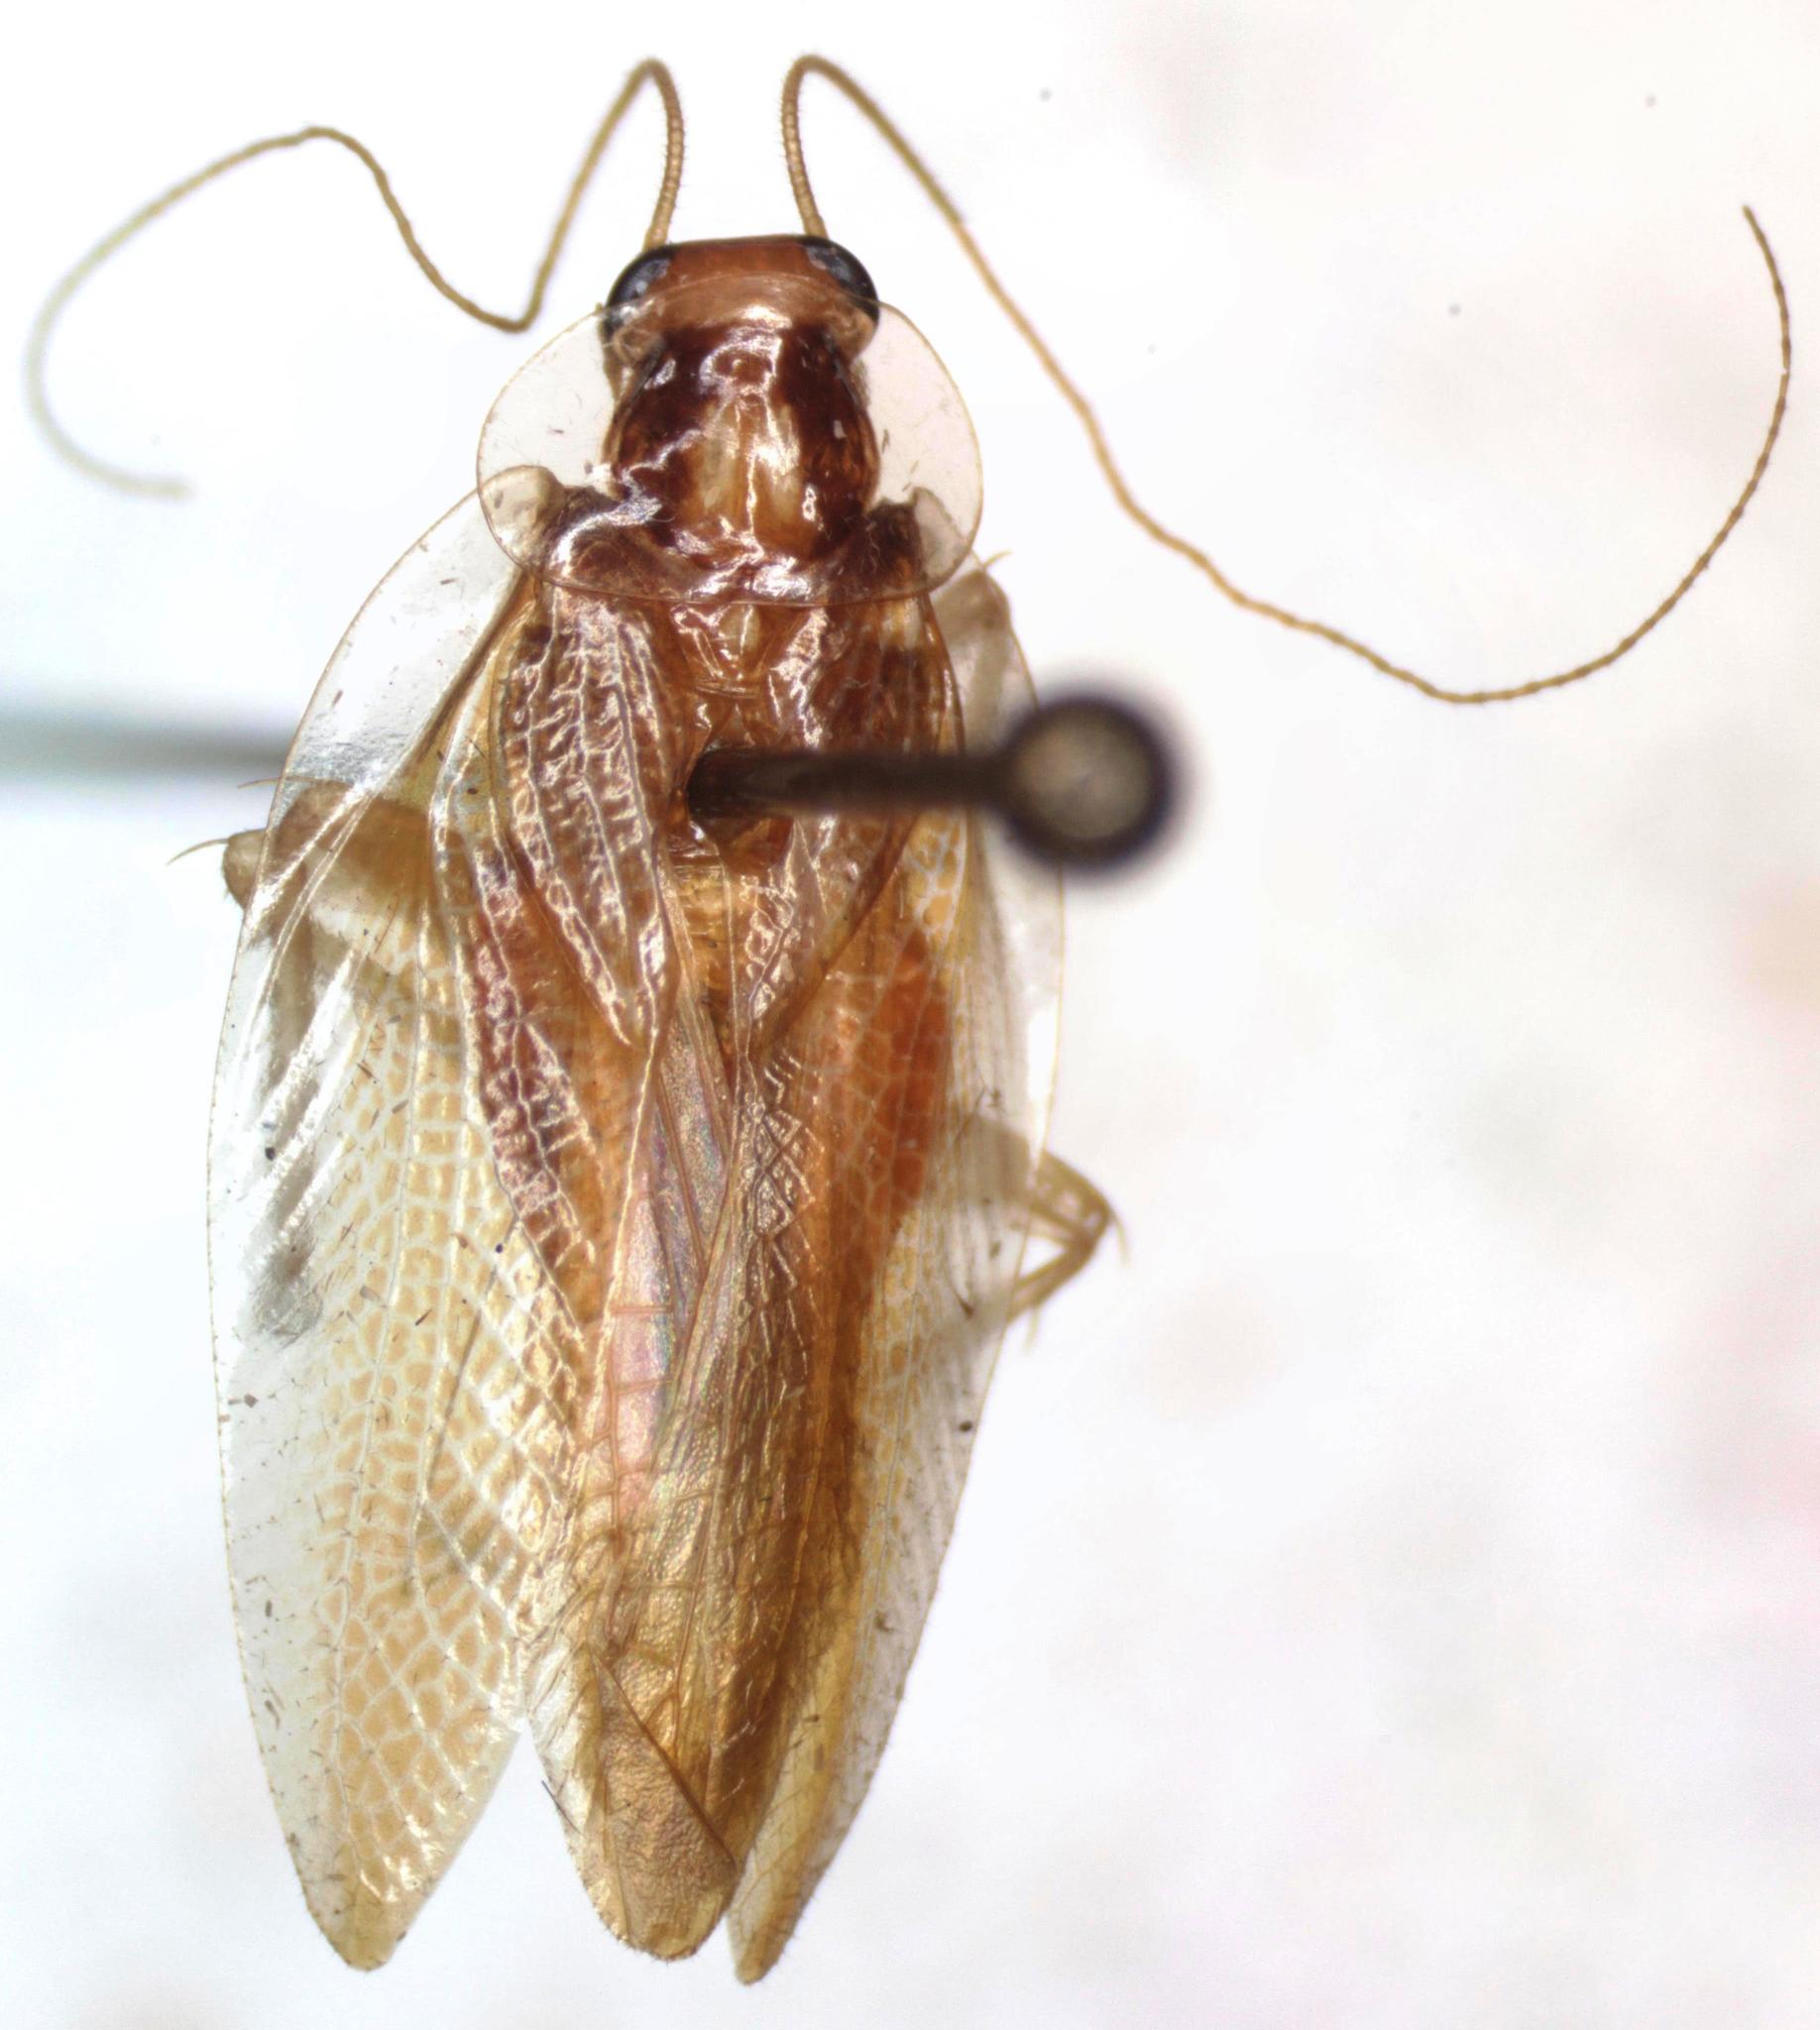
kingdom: Animalia
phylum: Arthropoda
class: Insecta
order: Blattodea
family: Ectobiidae
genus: Chorisoneura
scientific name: Chorisoneura panamae
